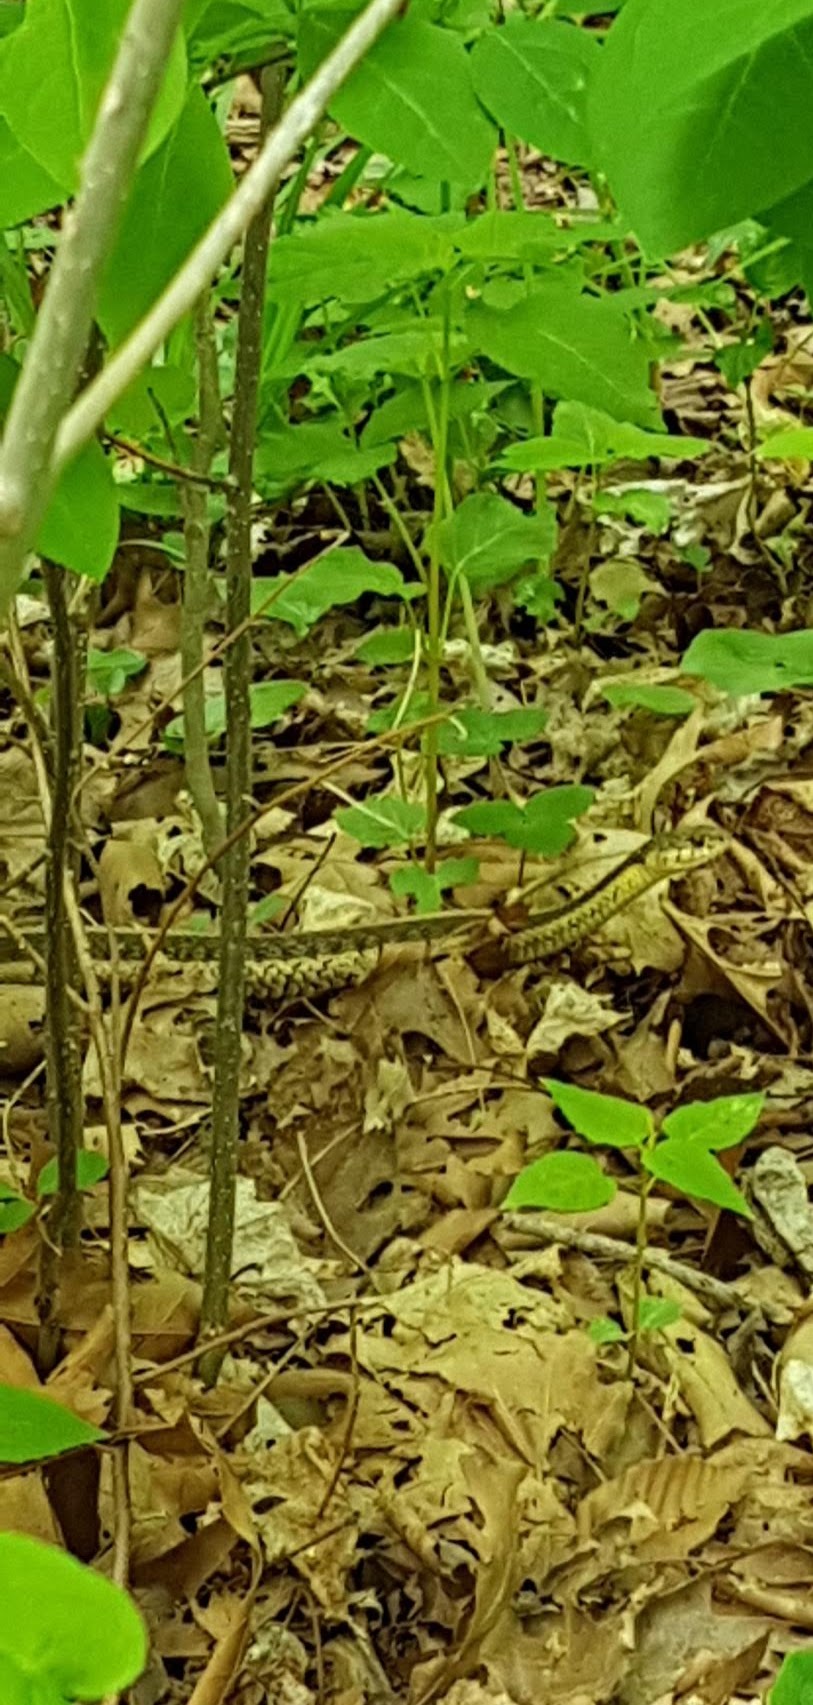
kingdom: Animalia
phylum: Chordata
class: Squamata
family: Colubridae
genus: Thamnophis
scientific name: Thamnophis sirtalis
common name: Common garter snake
